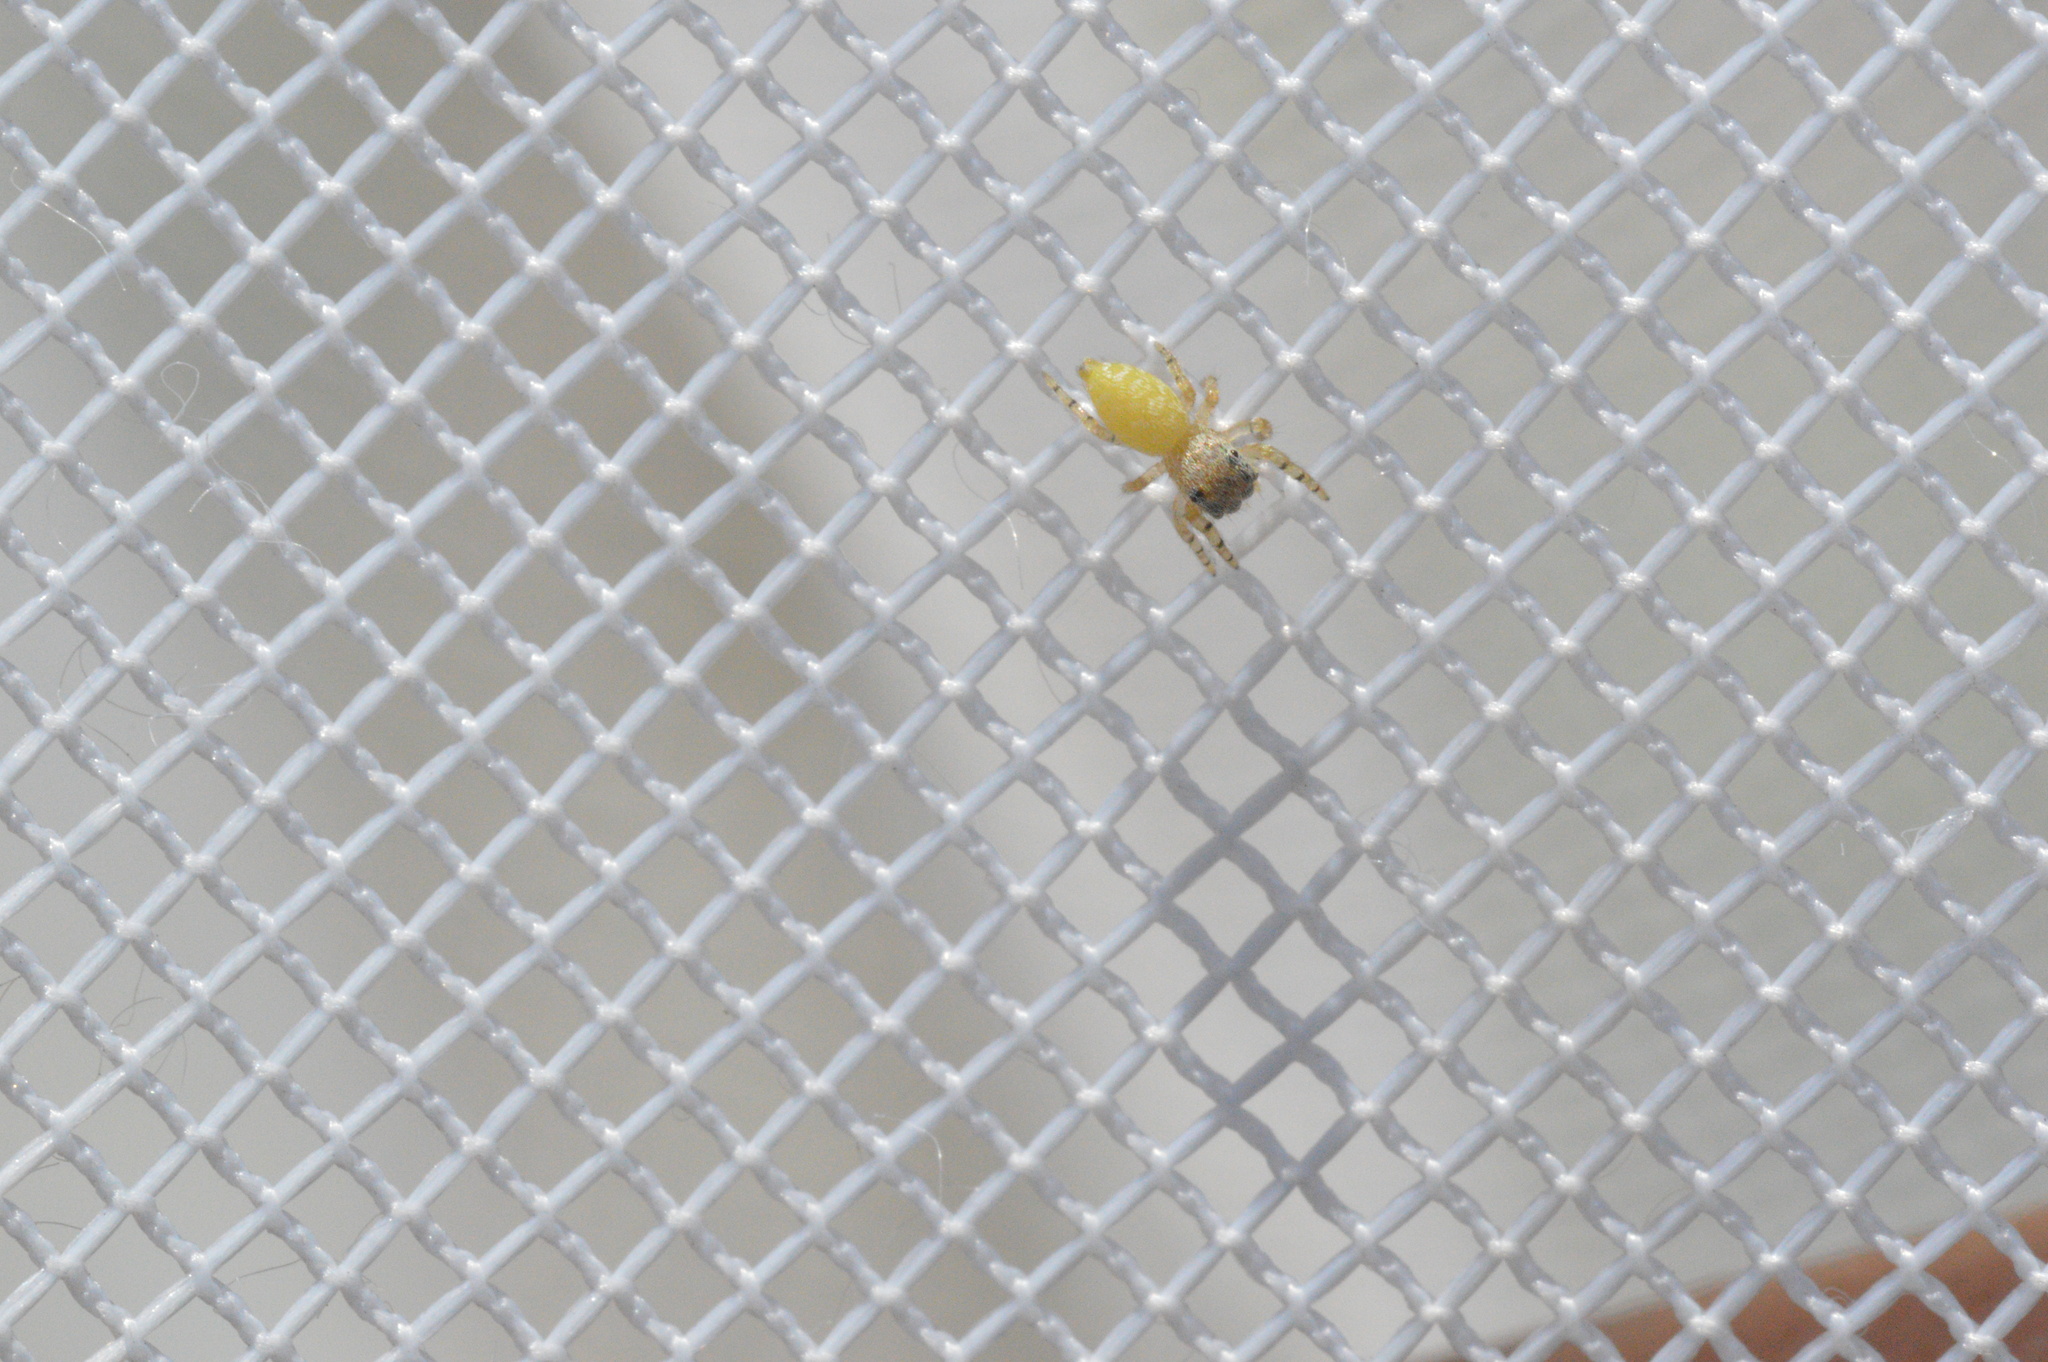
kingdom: Animalia
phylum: Arthropoda
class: Arachnida
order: Araneae
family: Salticidae
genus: Eris
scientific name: Eris floridana
